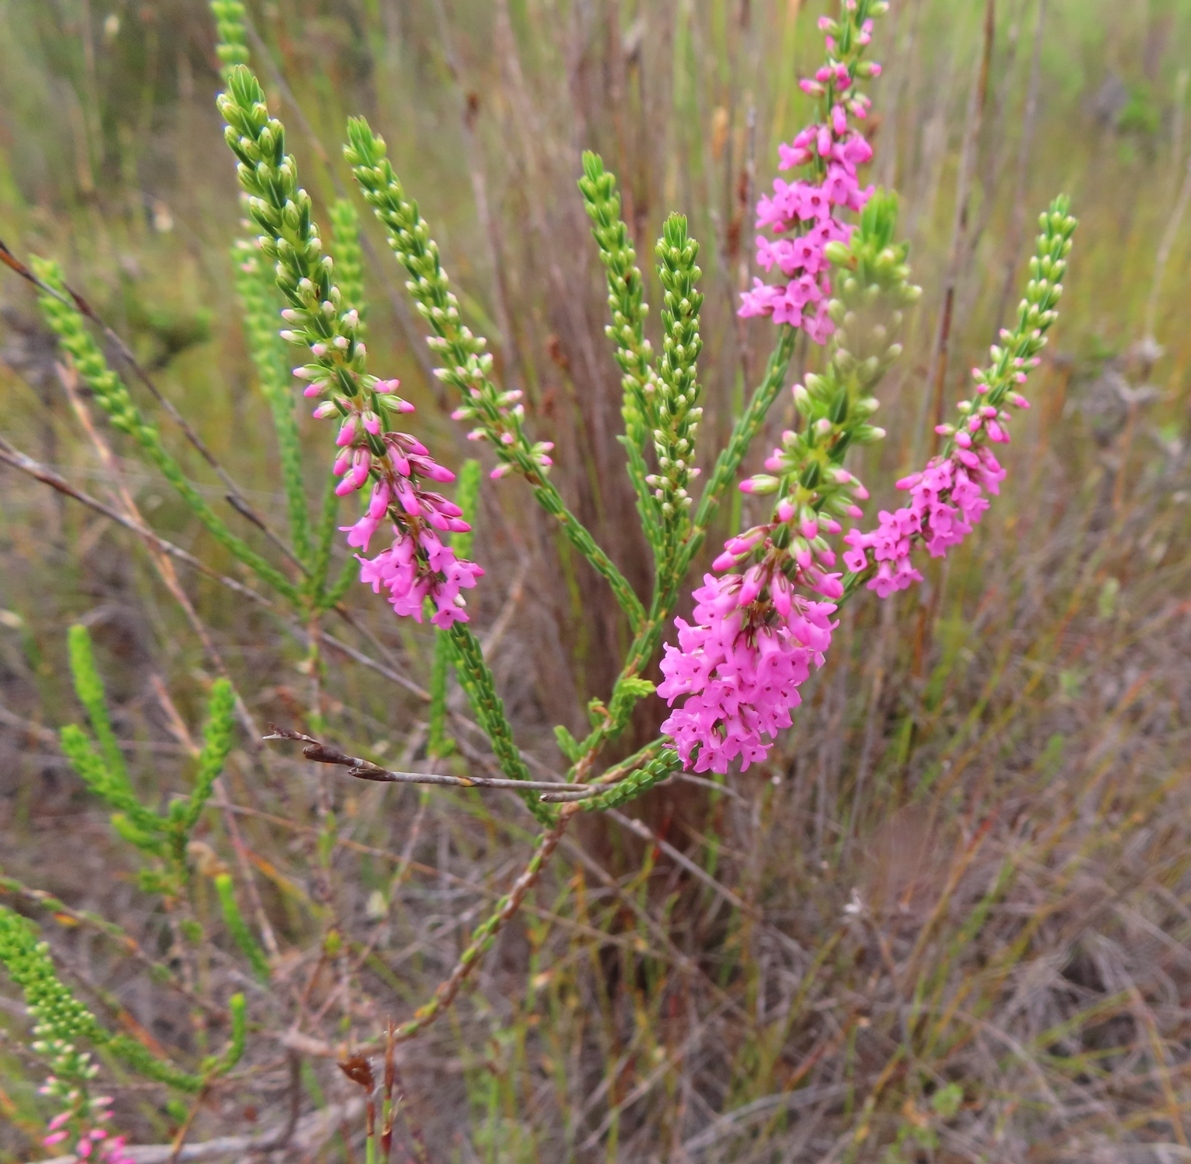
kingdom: Plantae
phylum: Tracheophyta
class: Magnoliopsida
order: Ericales
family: Ericaceae
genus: Erica
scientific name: Erica longiaristata
